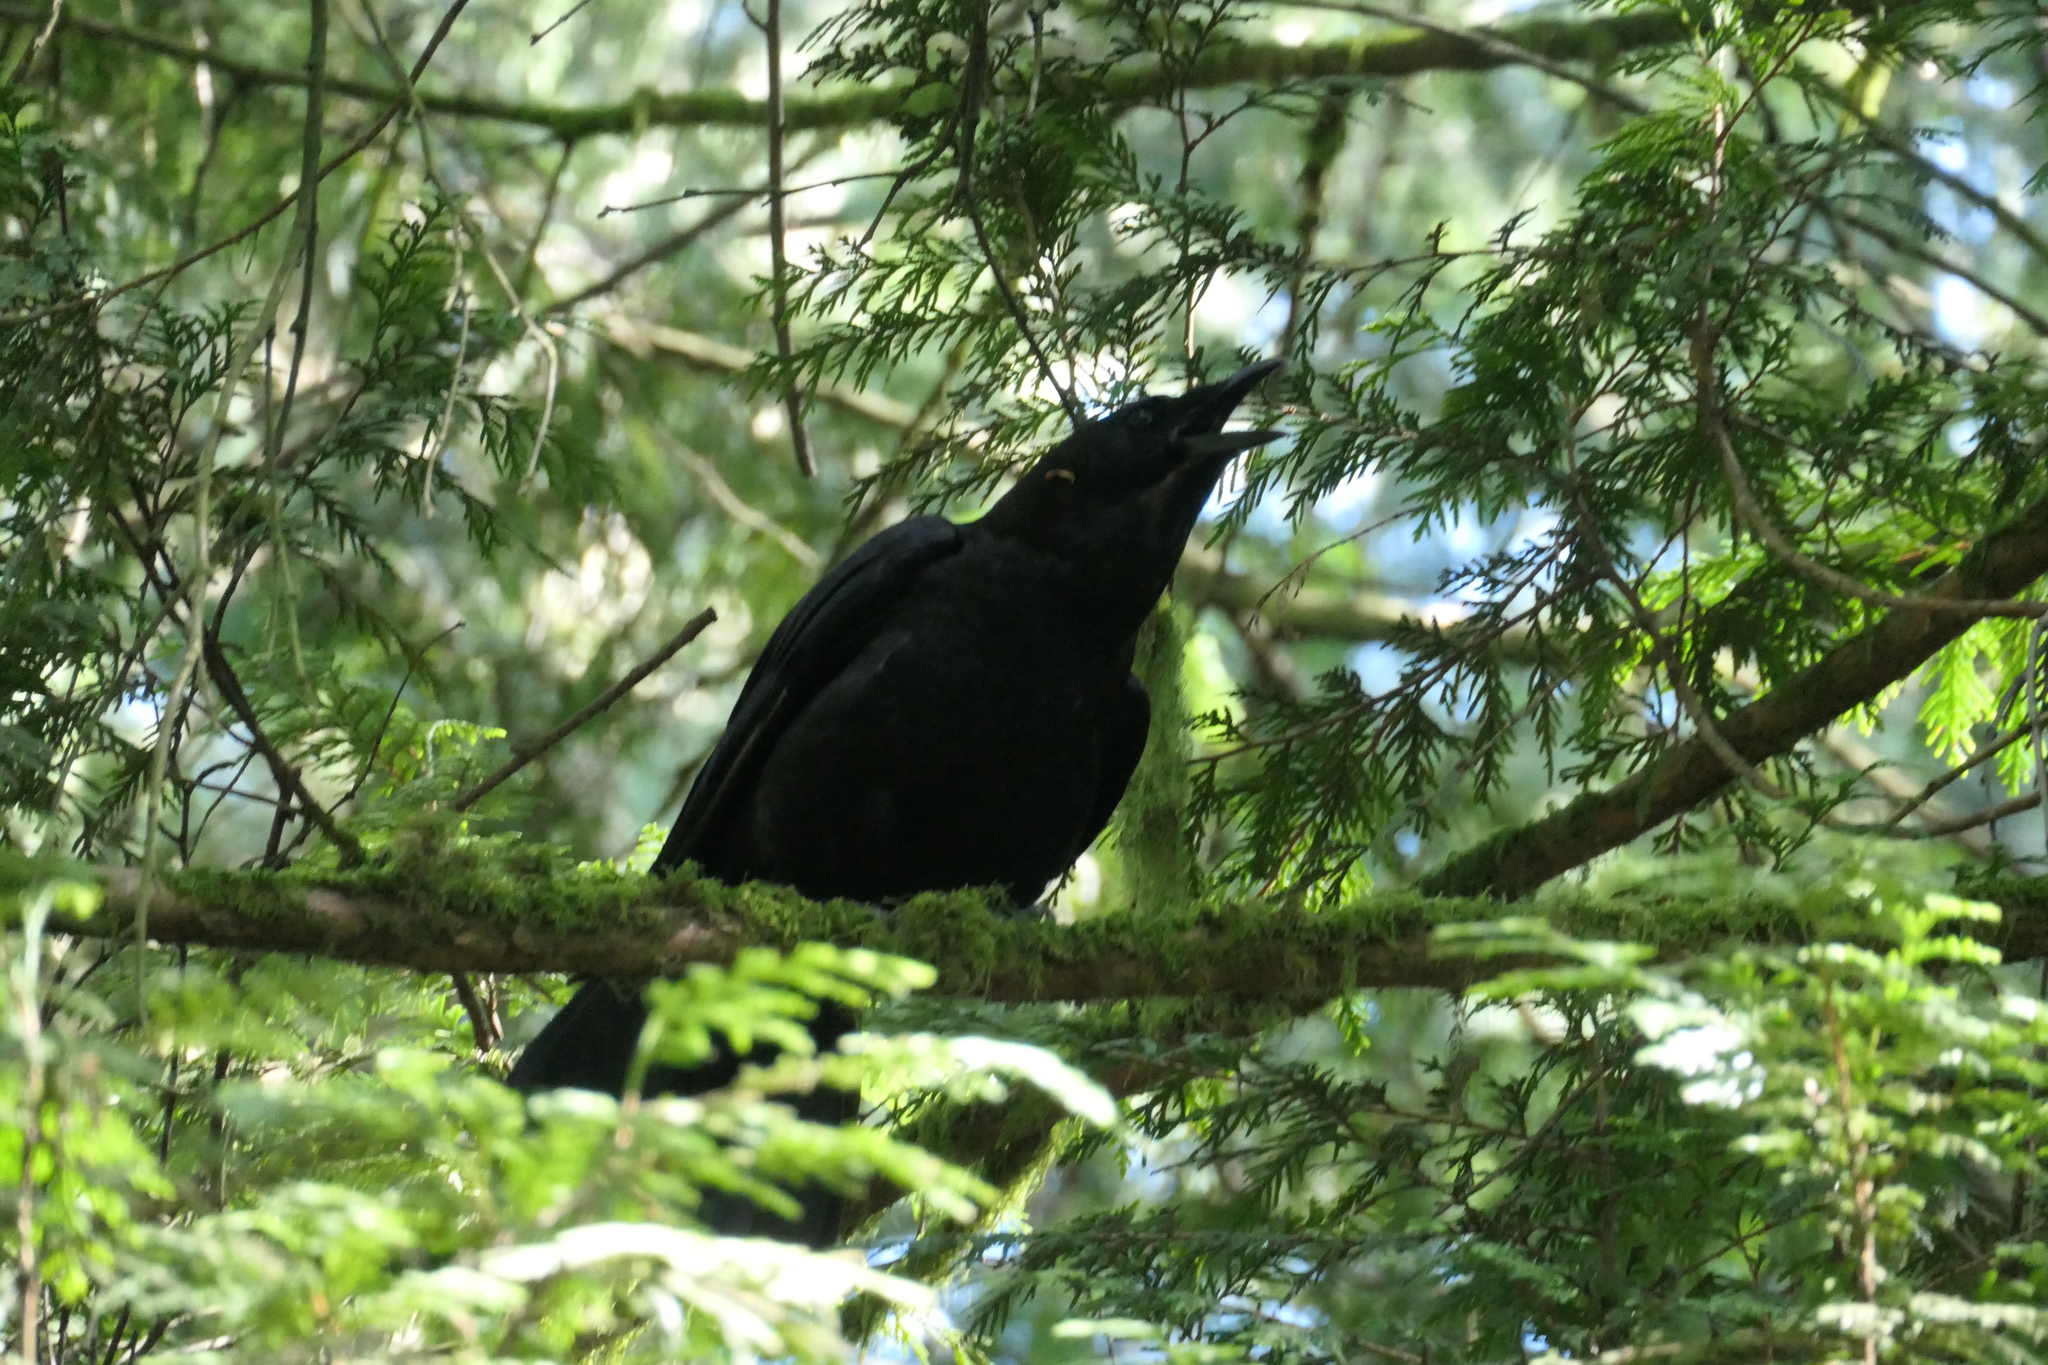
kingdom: Animalia
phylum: Chordata
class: Aves
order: Passeriformes
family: Corvidae
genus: Corvus
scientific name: Corvus brachyrhynchos
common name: American crow
